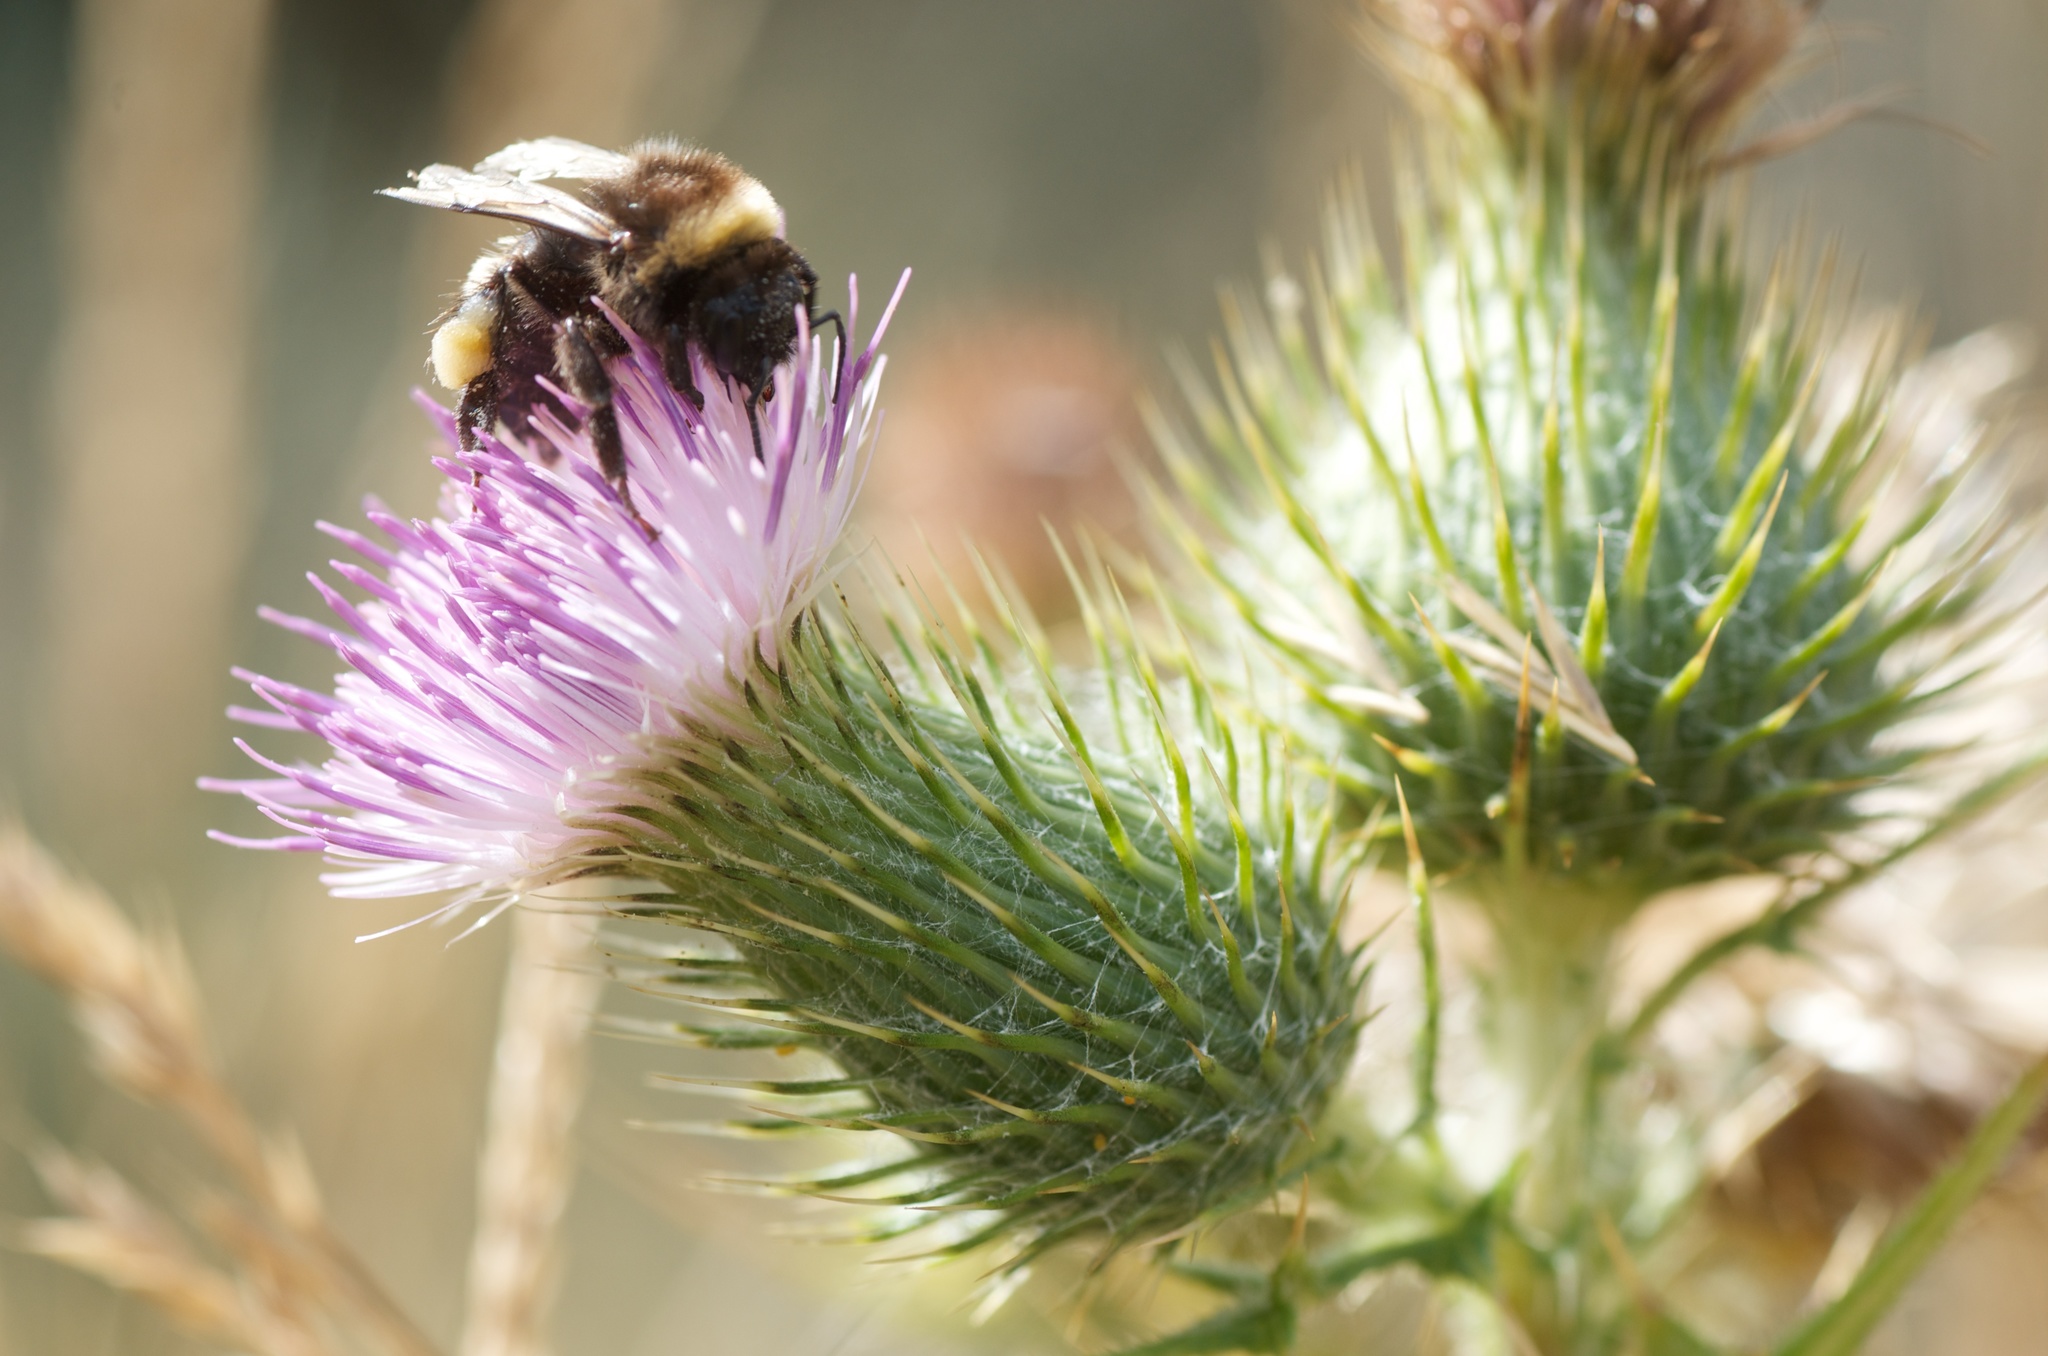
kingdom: Plantae
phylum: Tracheophyta
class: Magnoliopsida
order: Asterales
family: Asteraceae
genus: Cirsium
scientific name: Cirsium vulgare
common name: Bull thistle
